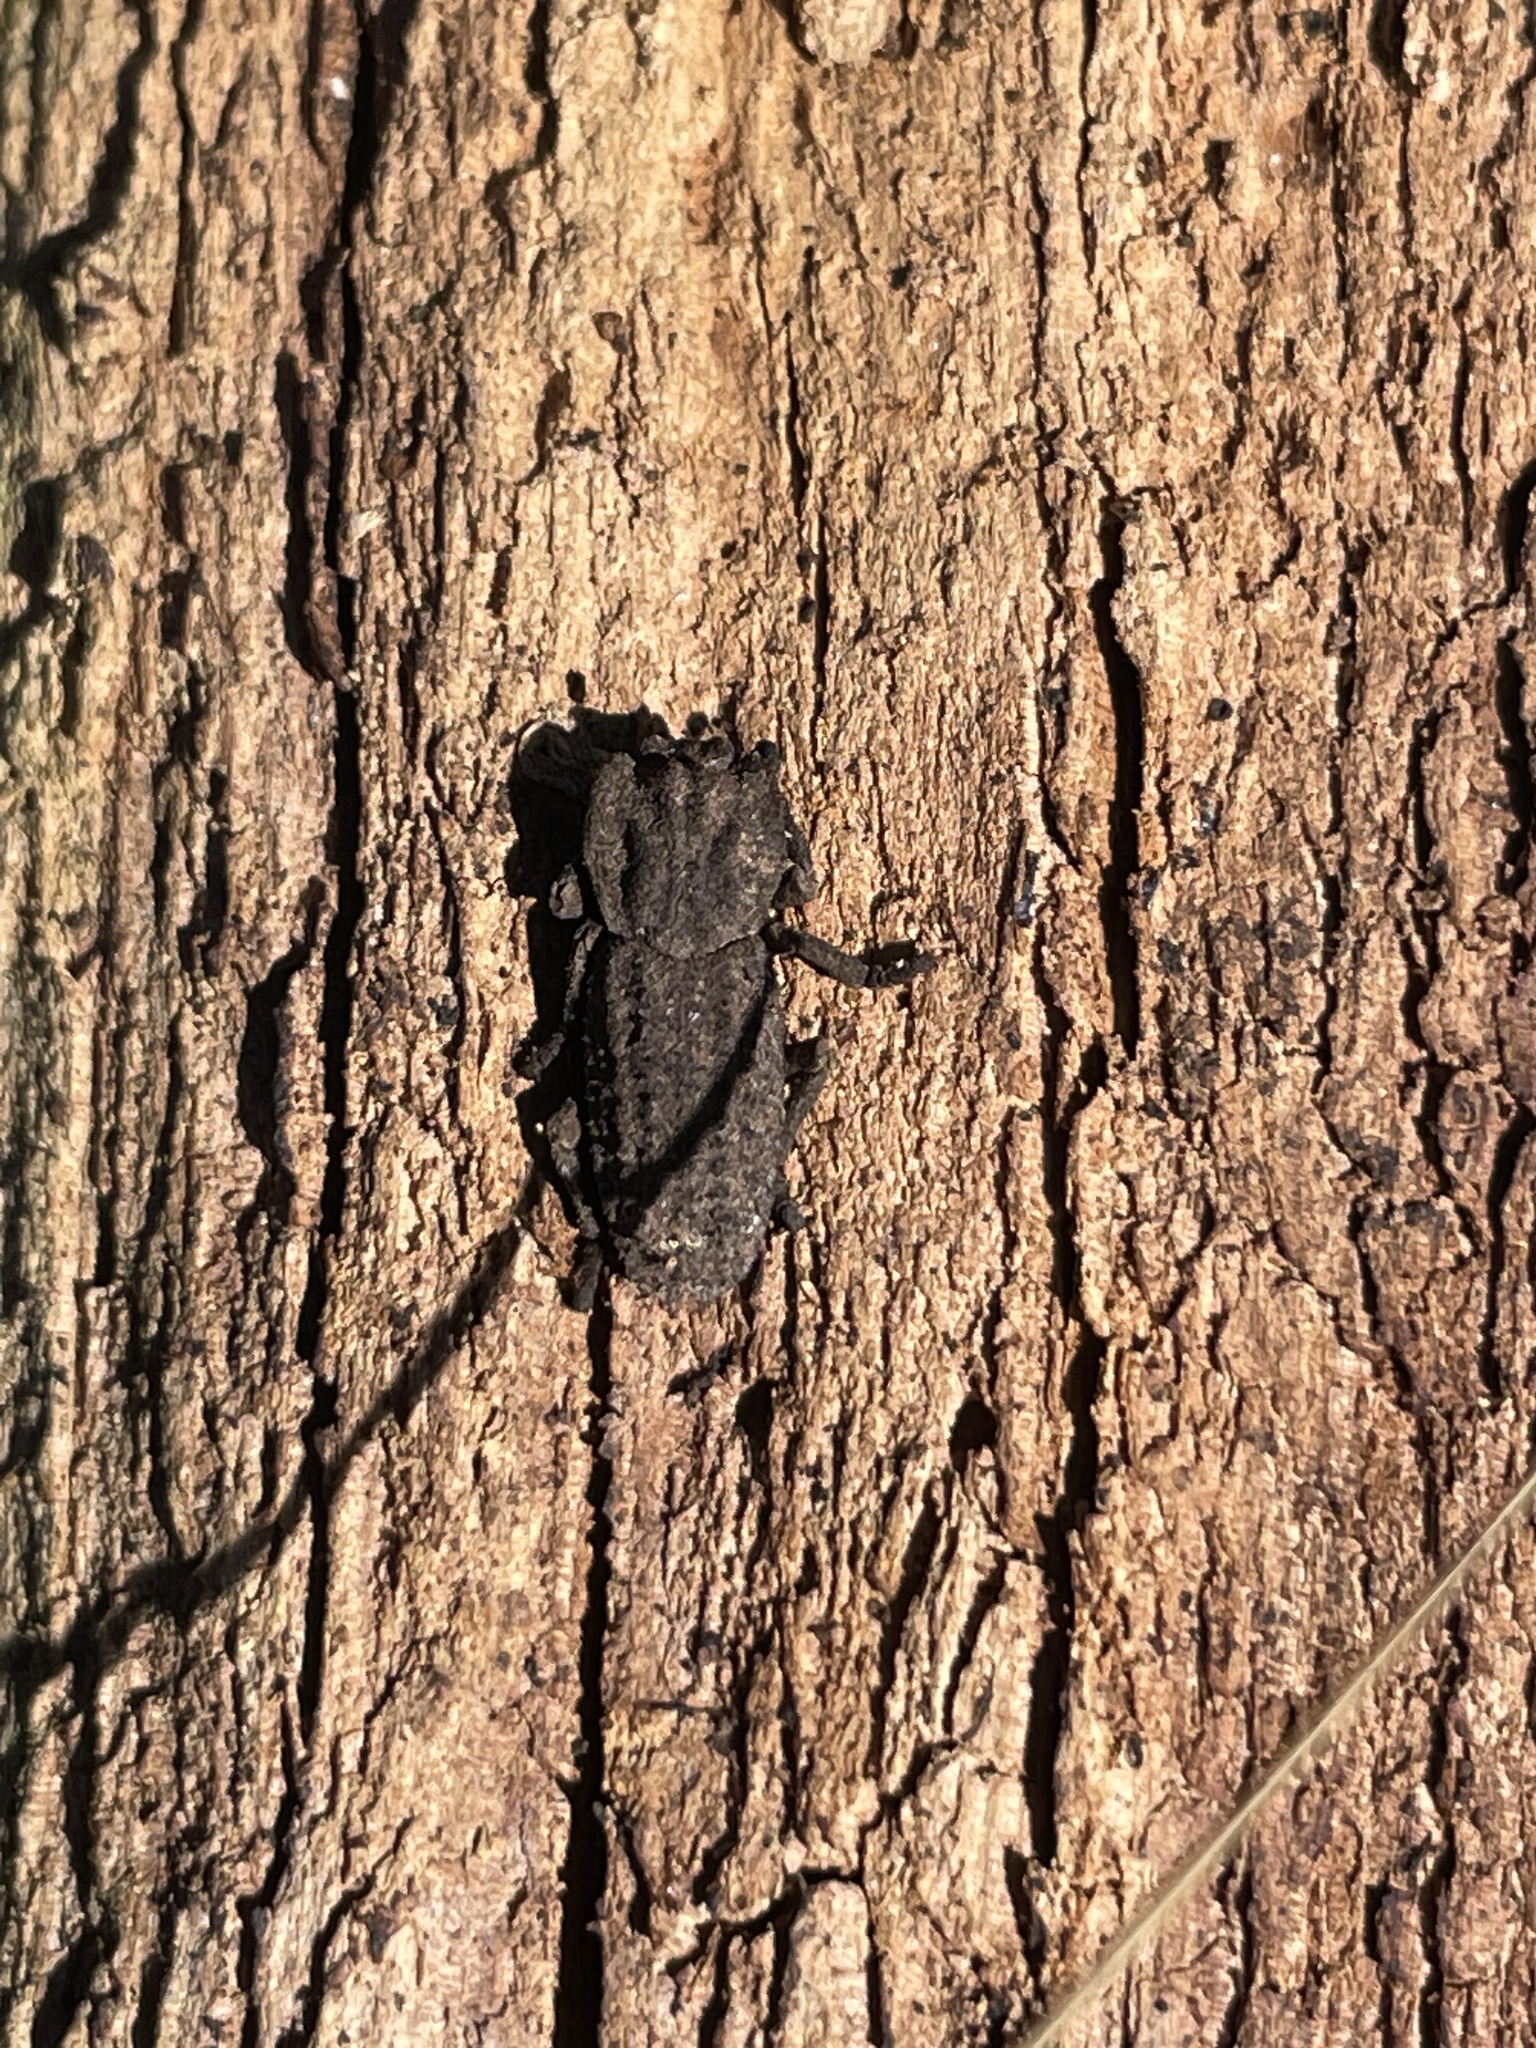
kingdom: Animalia
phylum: Arthropoda
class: Insecta
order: Coleoptera
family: Zopheridae
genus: Sesaspis
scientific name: Sesaspis
